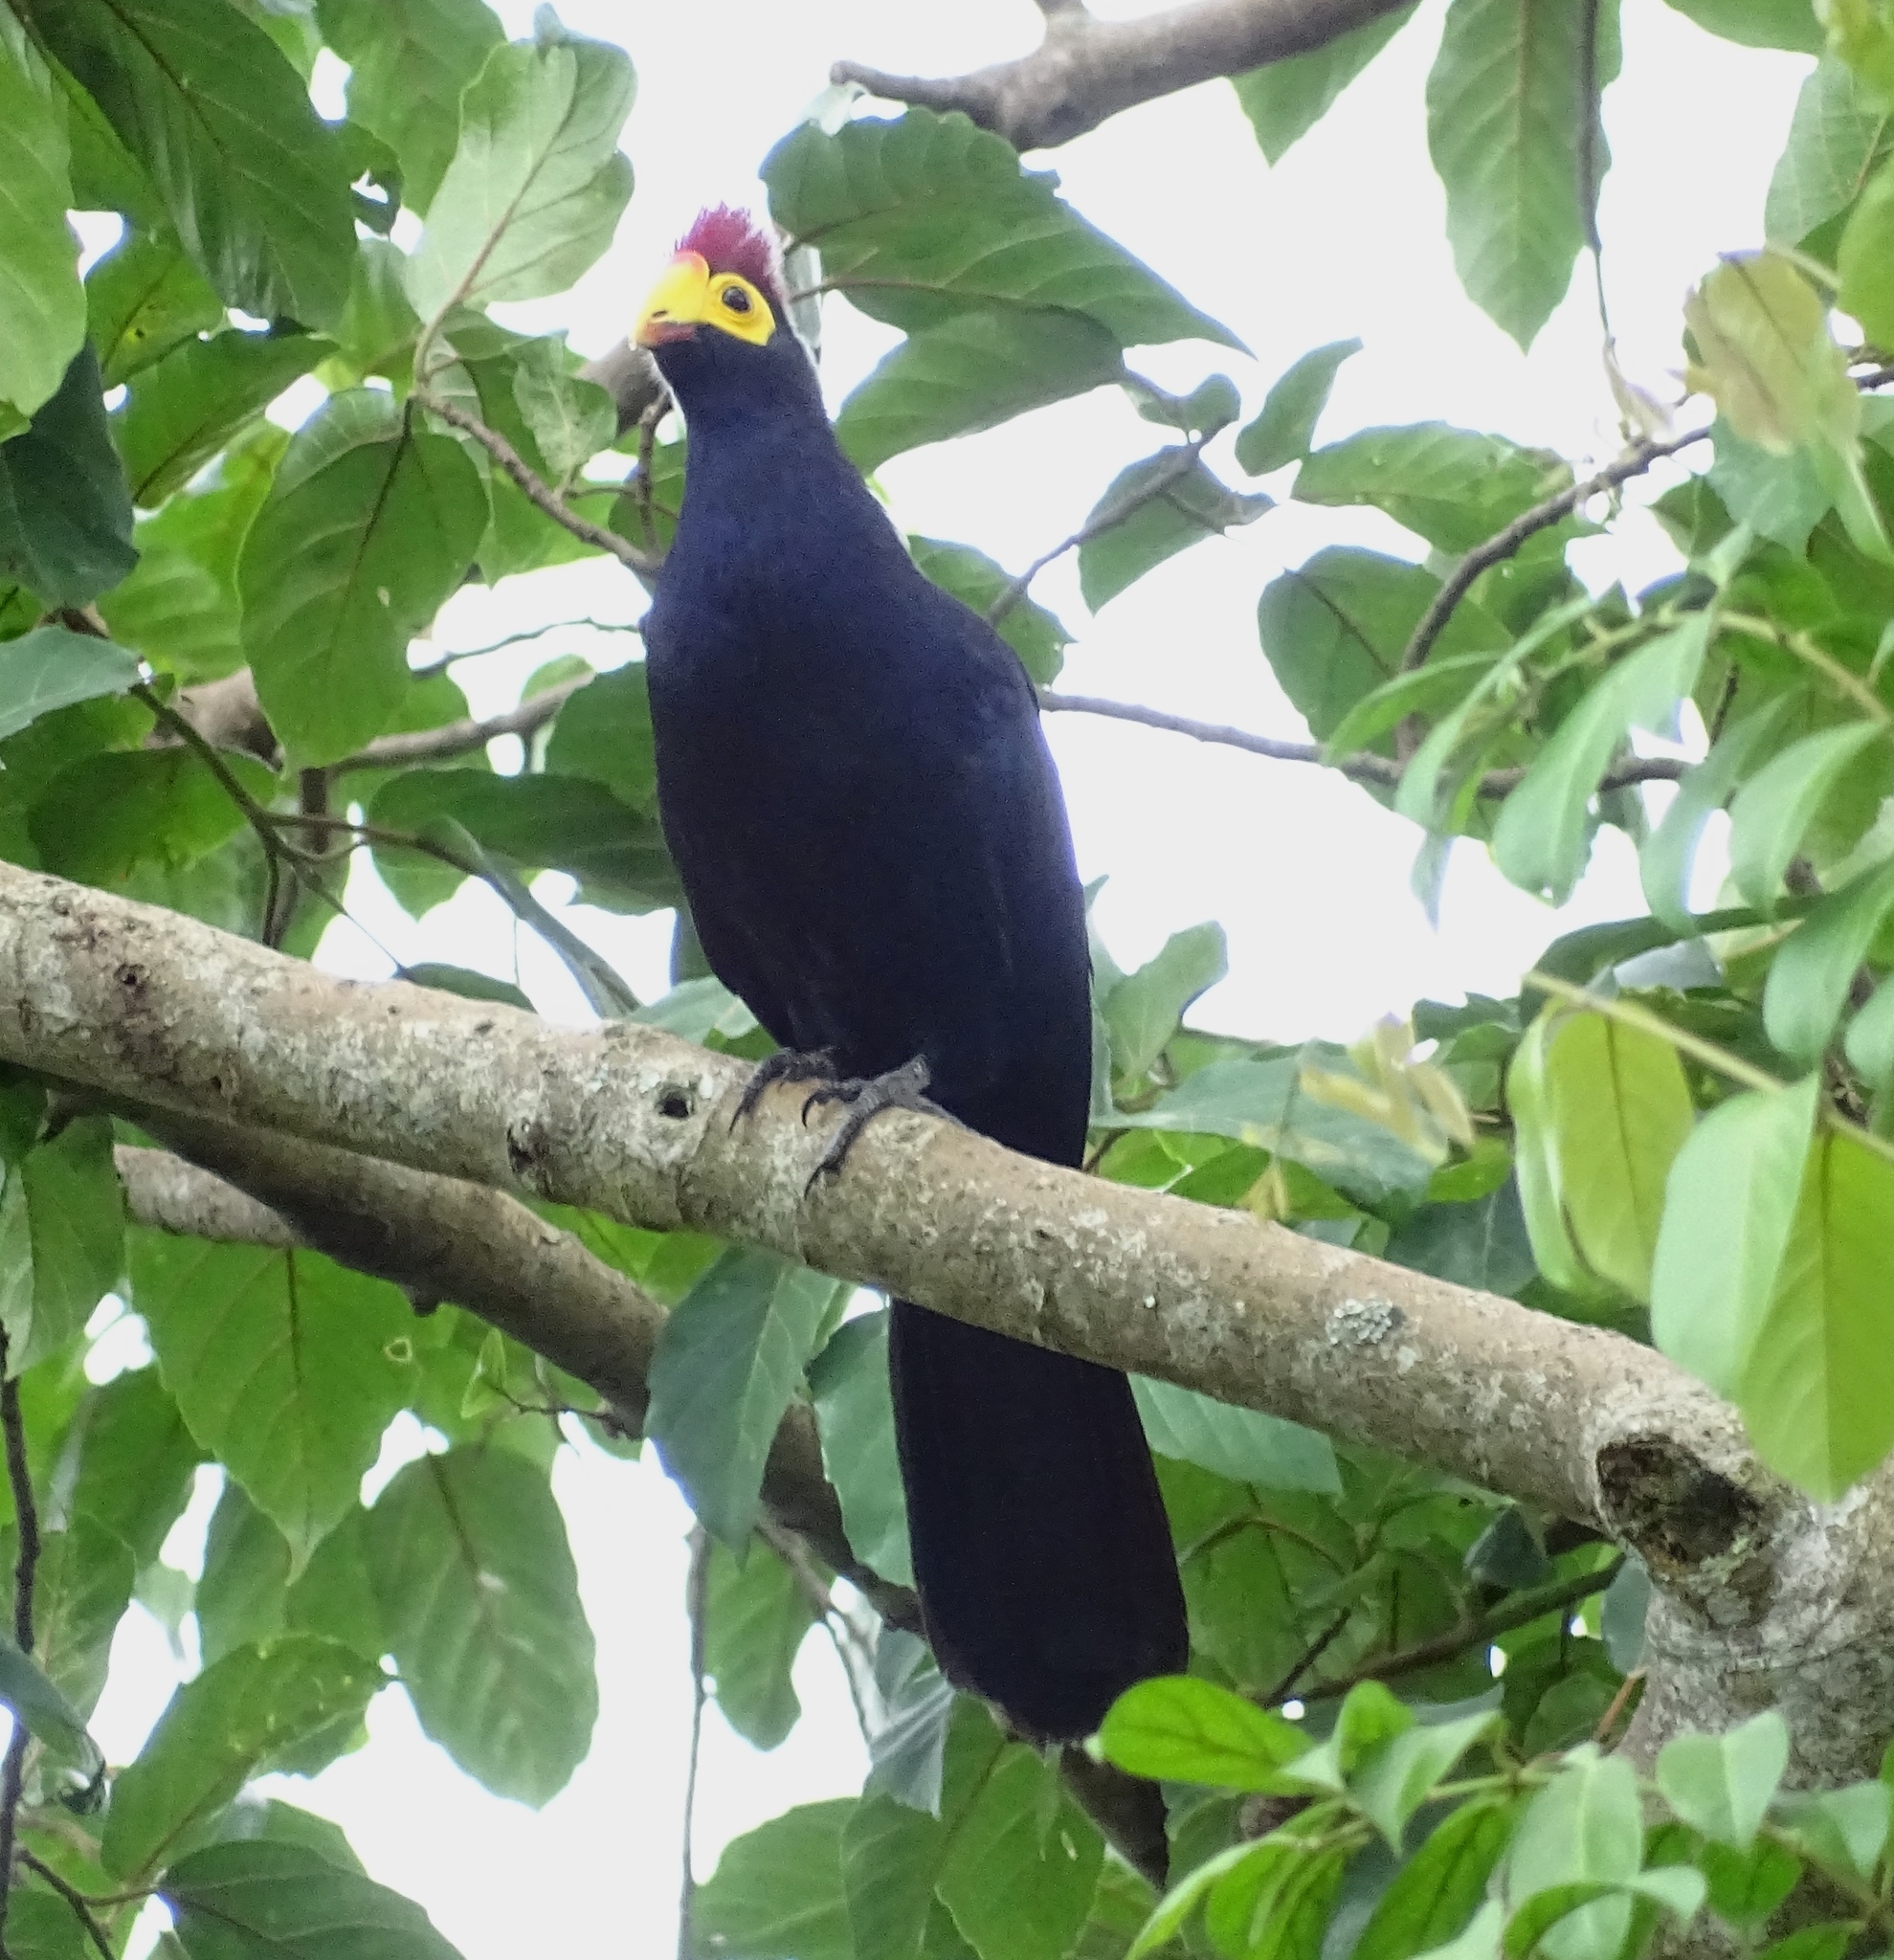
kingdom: Animalia
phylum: Chordata
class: Aves
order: Musophagiformes
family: Musophagidae
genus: Musophaga
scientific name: Musophaga rossae
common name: Ross's turaco
